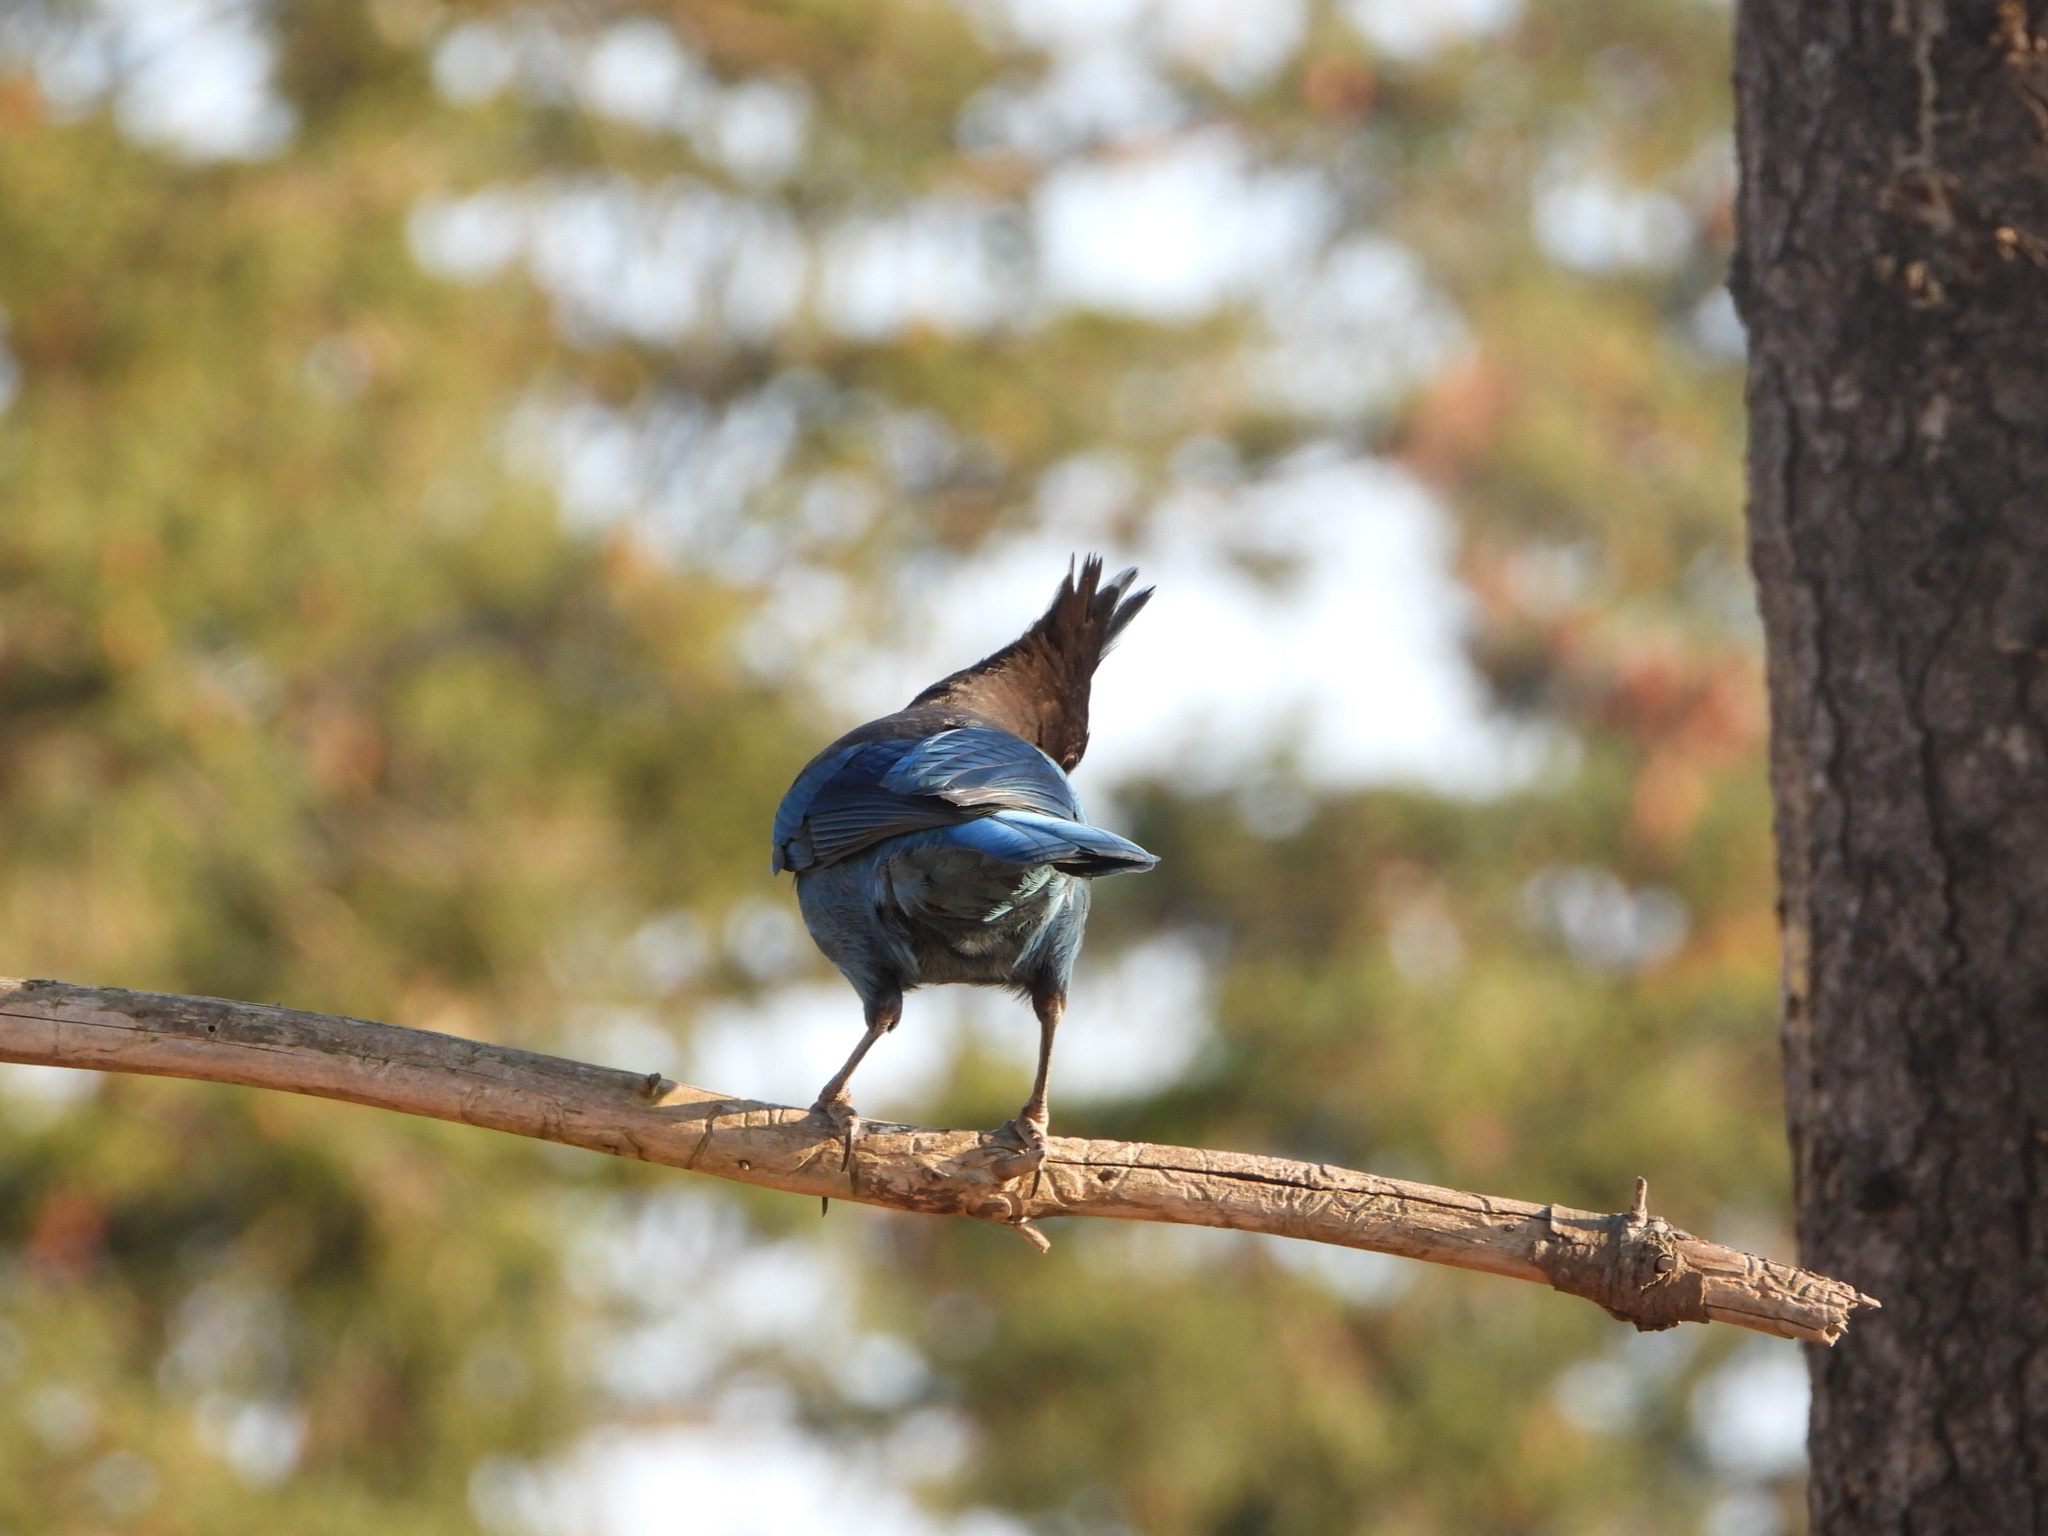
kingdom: Animalia
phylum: Chordata
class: Aves
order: Passeriformes
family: Corvidae
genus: Cyanocitta
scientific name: Cyanocitta stelleri
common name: Steller's jay
